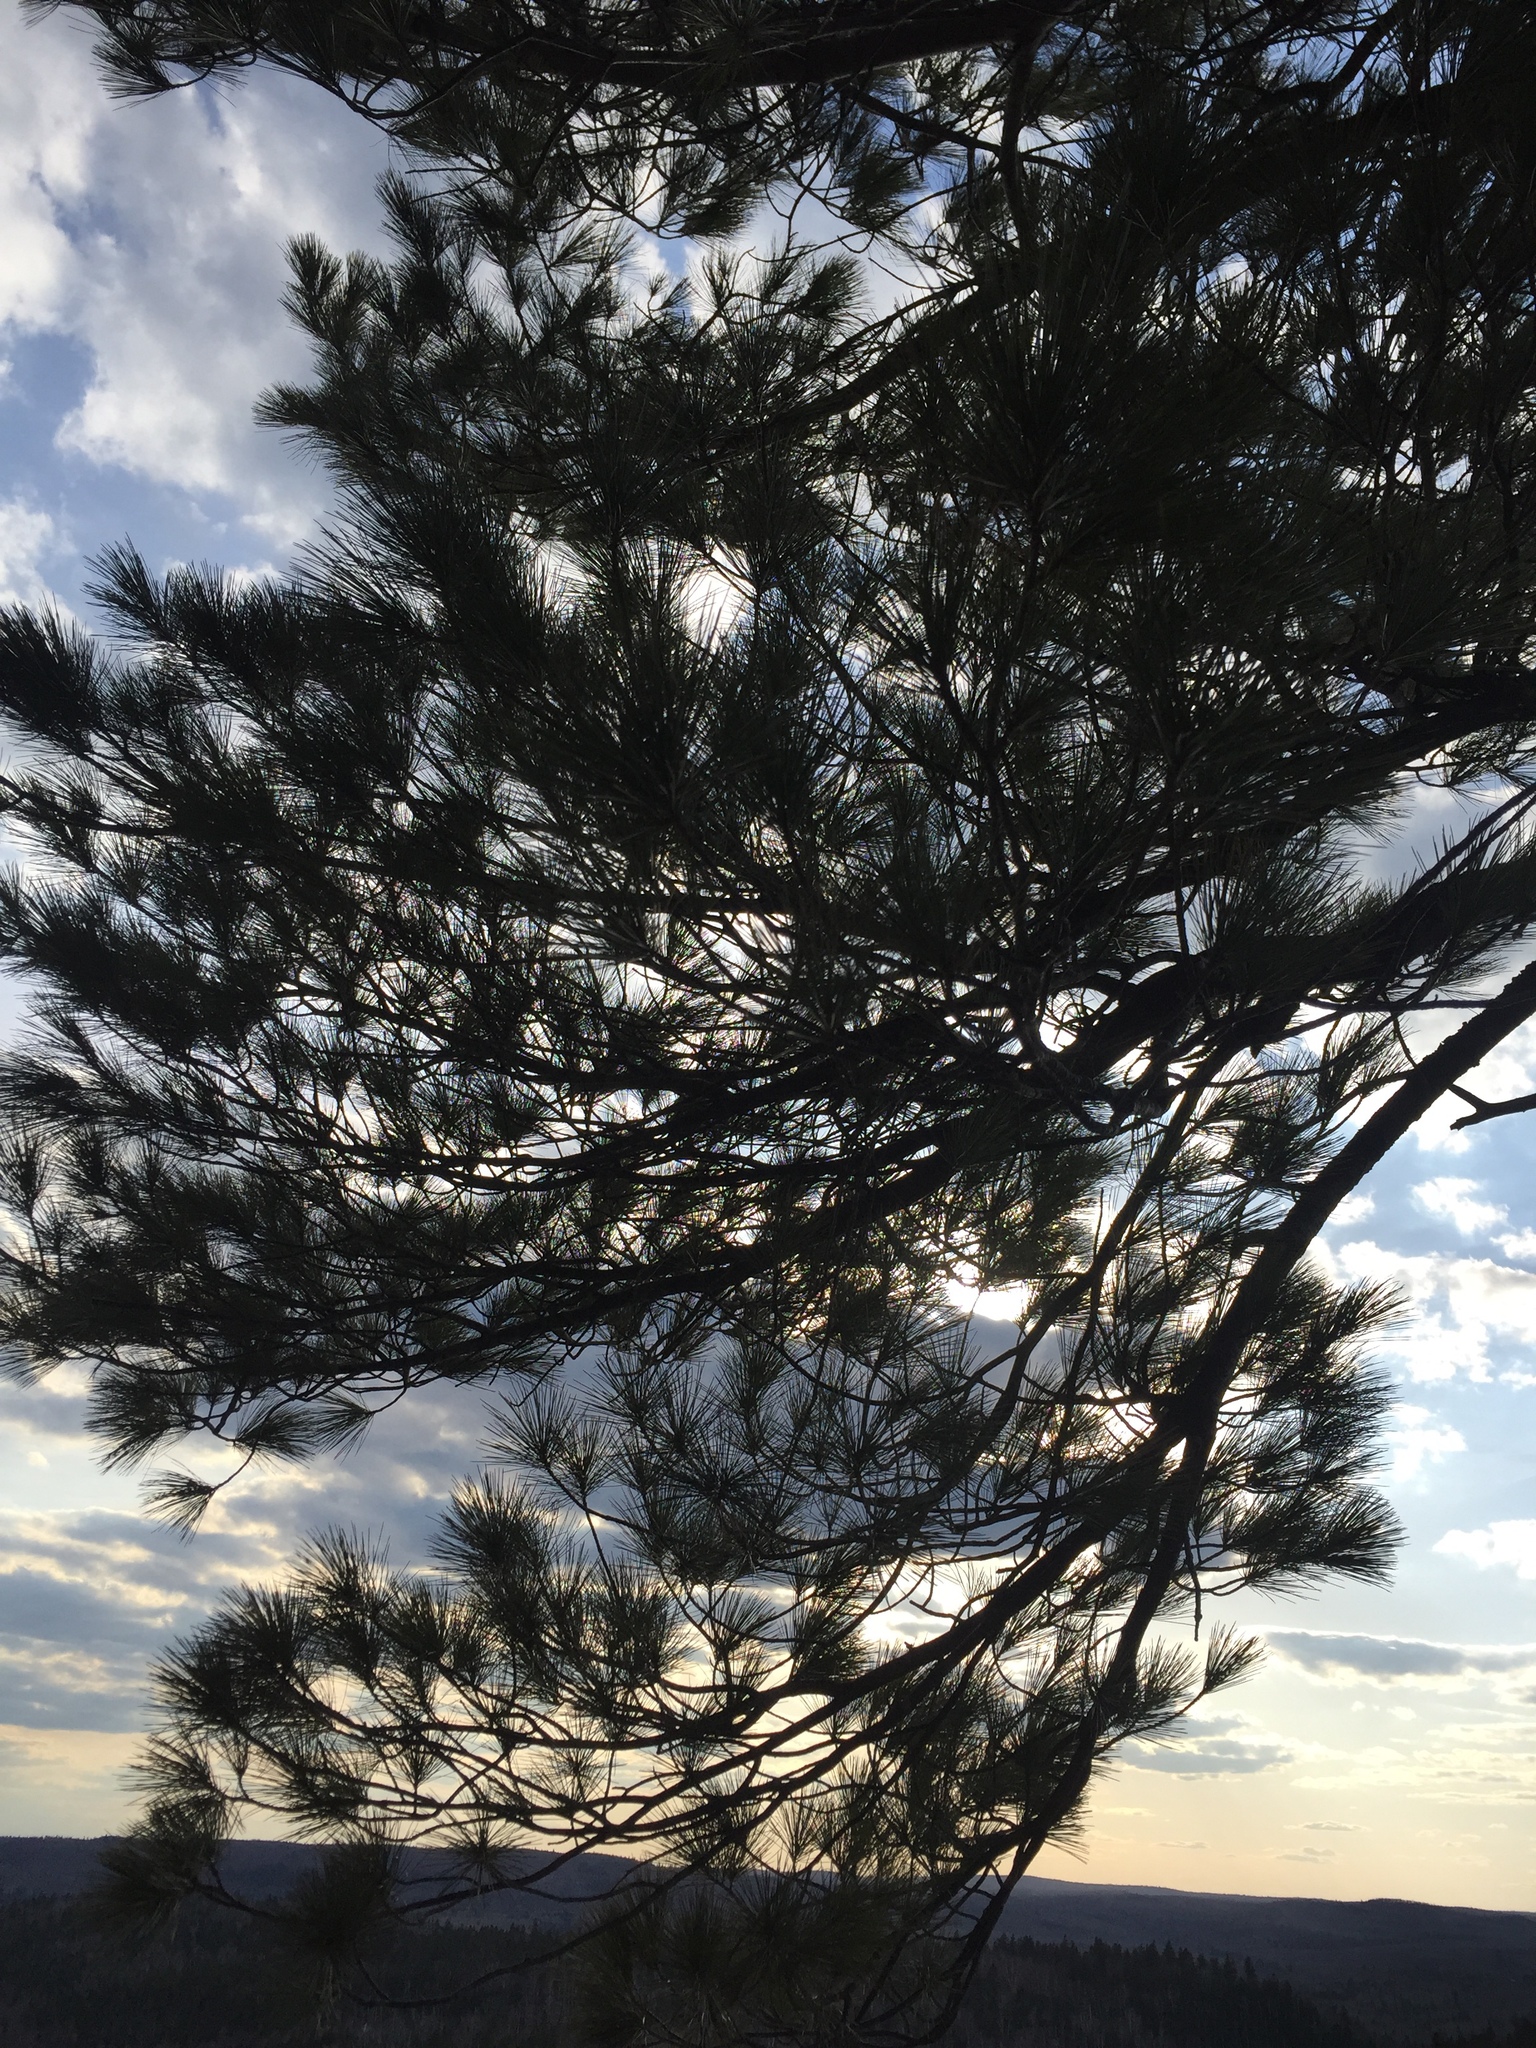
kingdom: Plantae
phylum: Tracheophyta
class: Pinopsida
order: Pinales
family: Pinaceae
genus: Pinus
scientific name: Pinus strobus
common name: Weymouth pine
